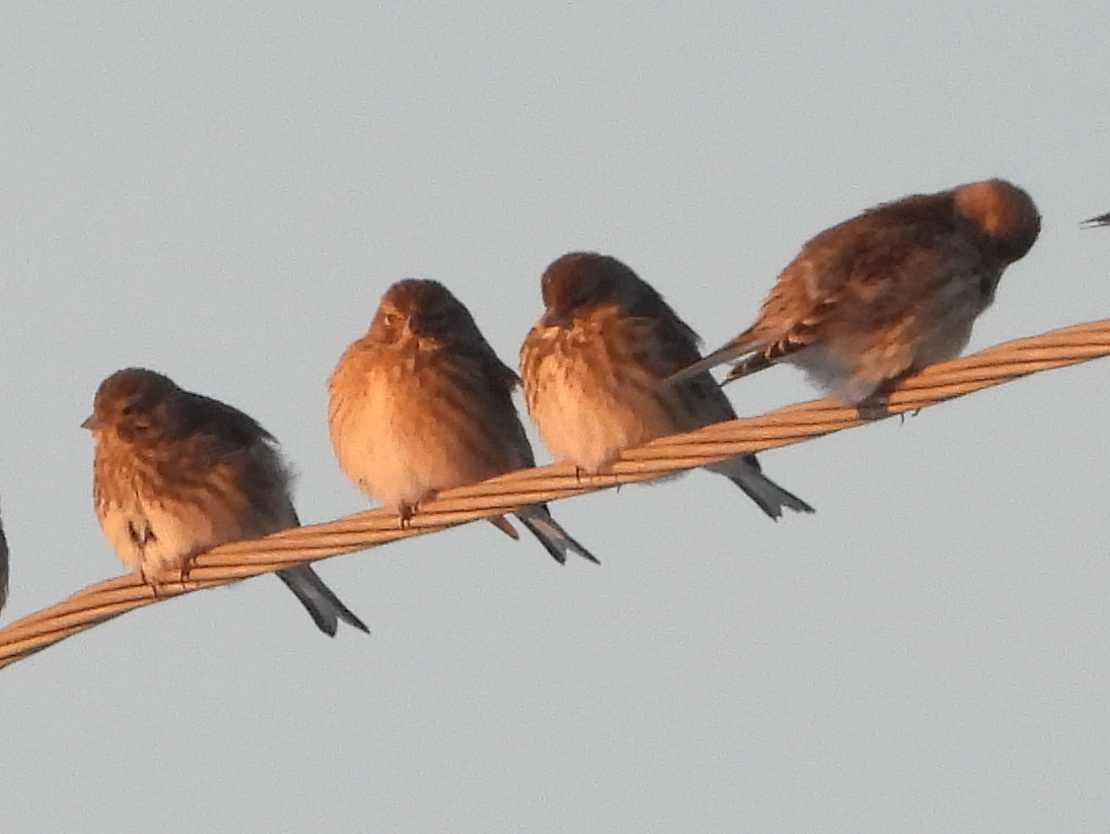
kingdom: Animalia
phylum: Chordata
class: Aves
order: Passeriformes
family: Fringillidae
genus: Linaria
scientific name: Linaria cannabina
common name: Common linnet
